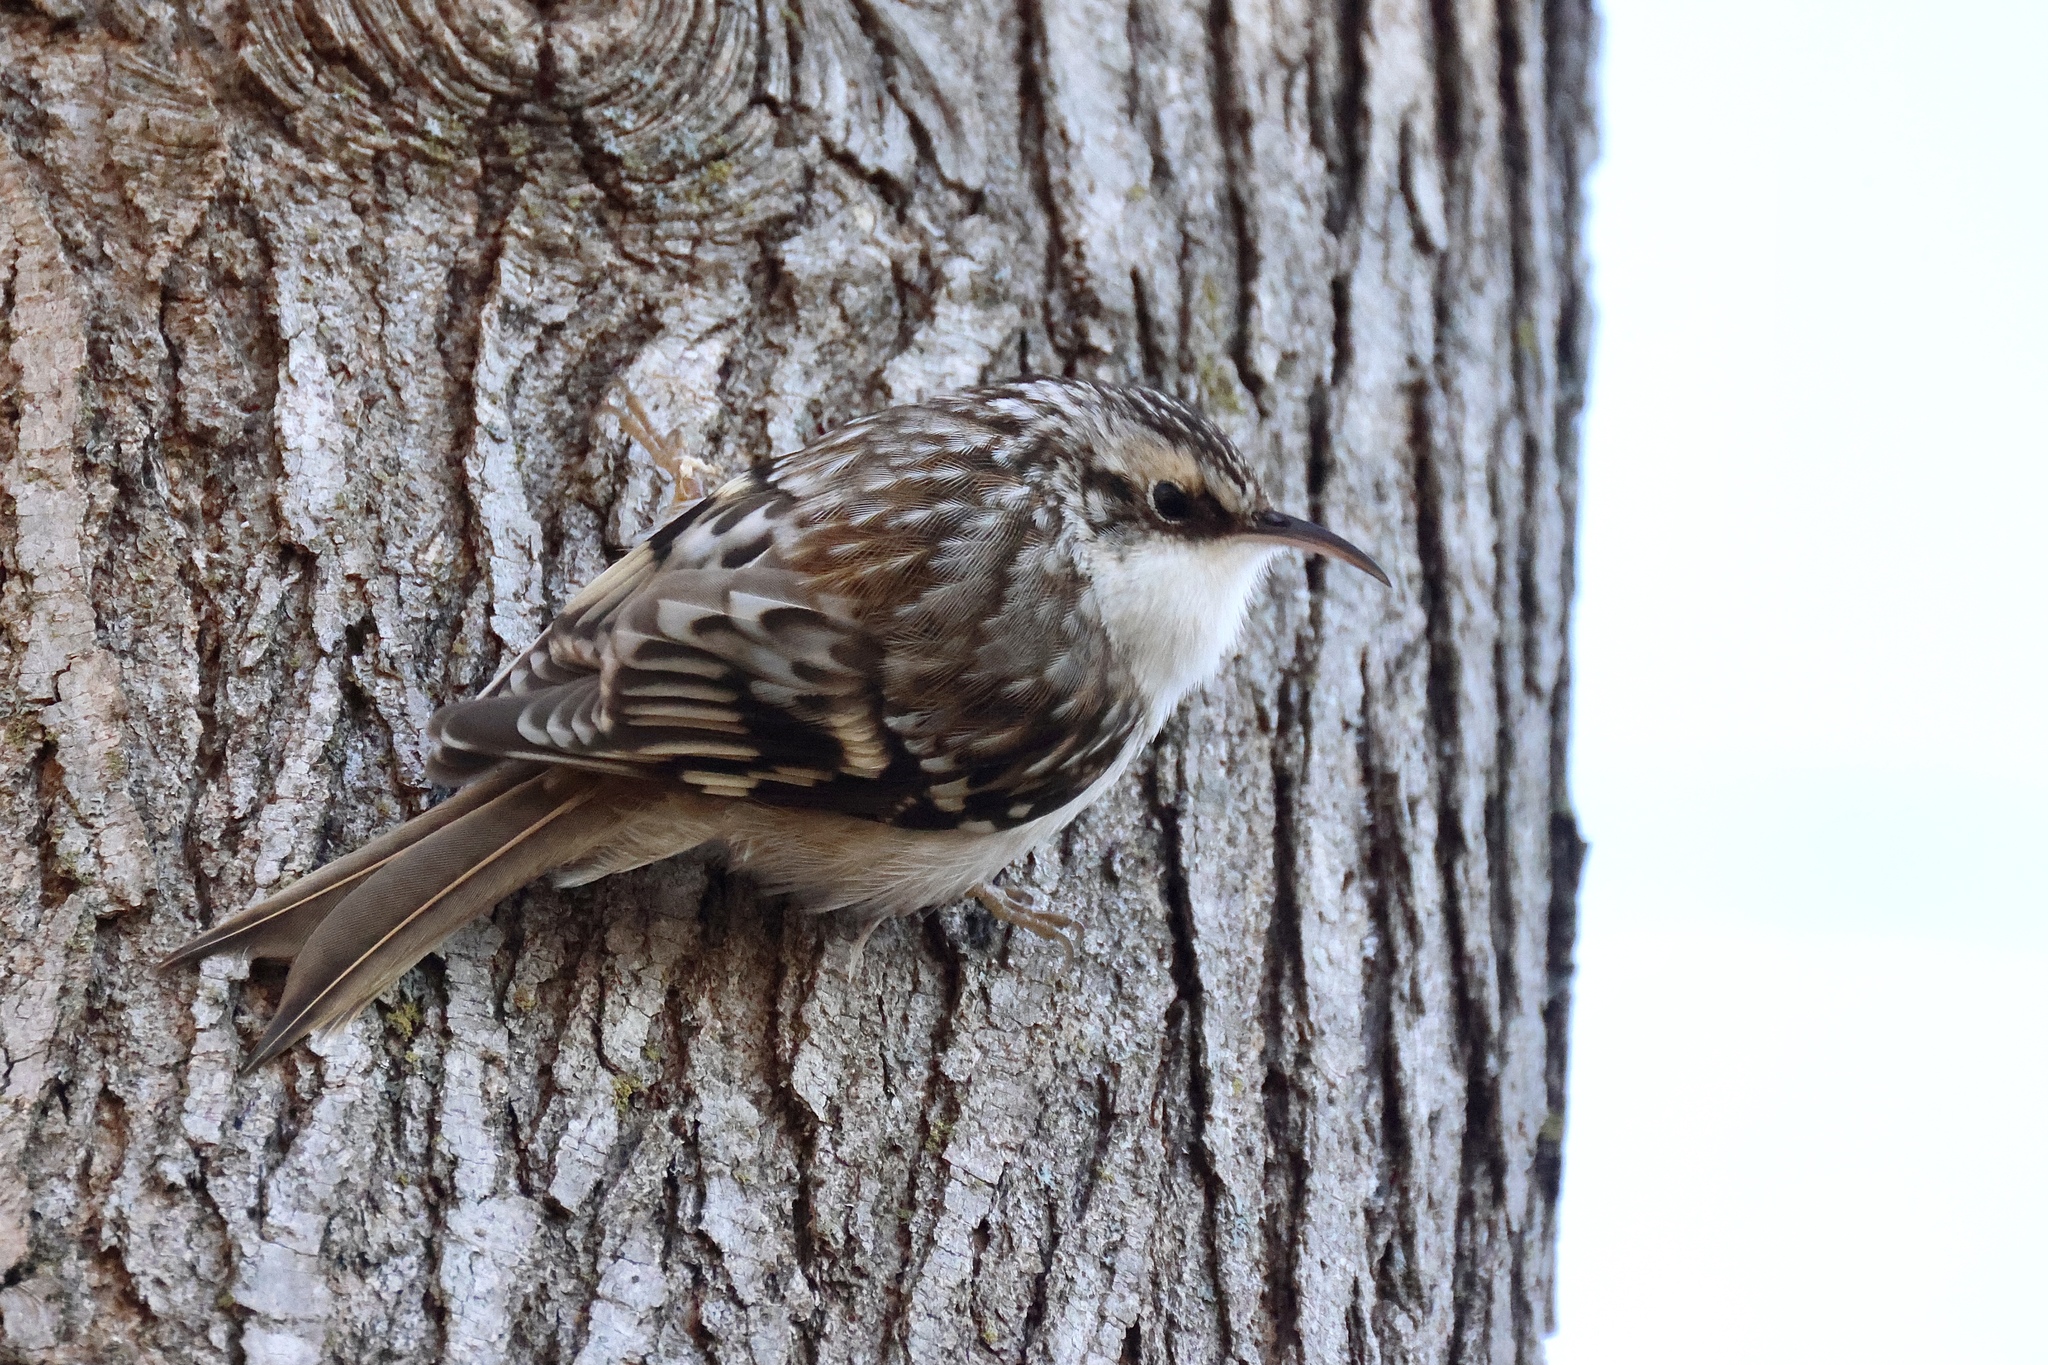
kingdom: Animalia
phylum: Chordata
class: Aves
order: Passeriformes
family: Certhiidae
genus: Certhia
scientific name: Certhia americana
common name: Brown creeper
